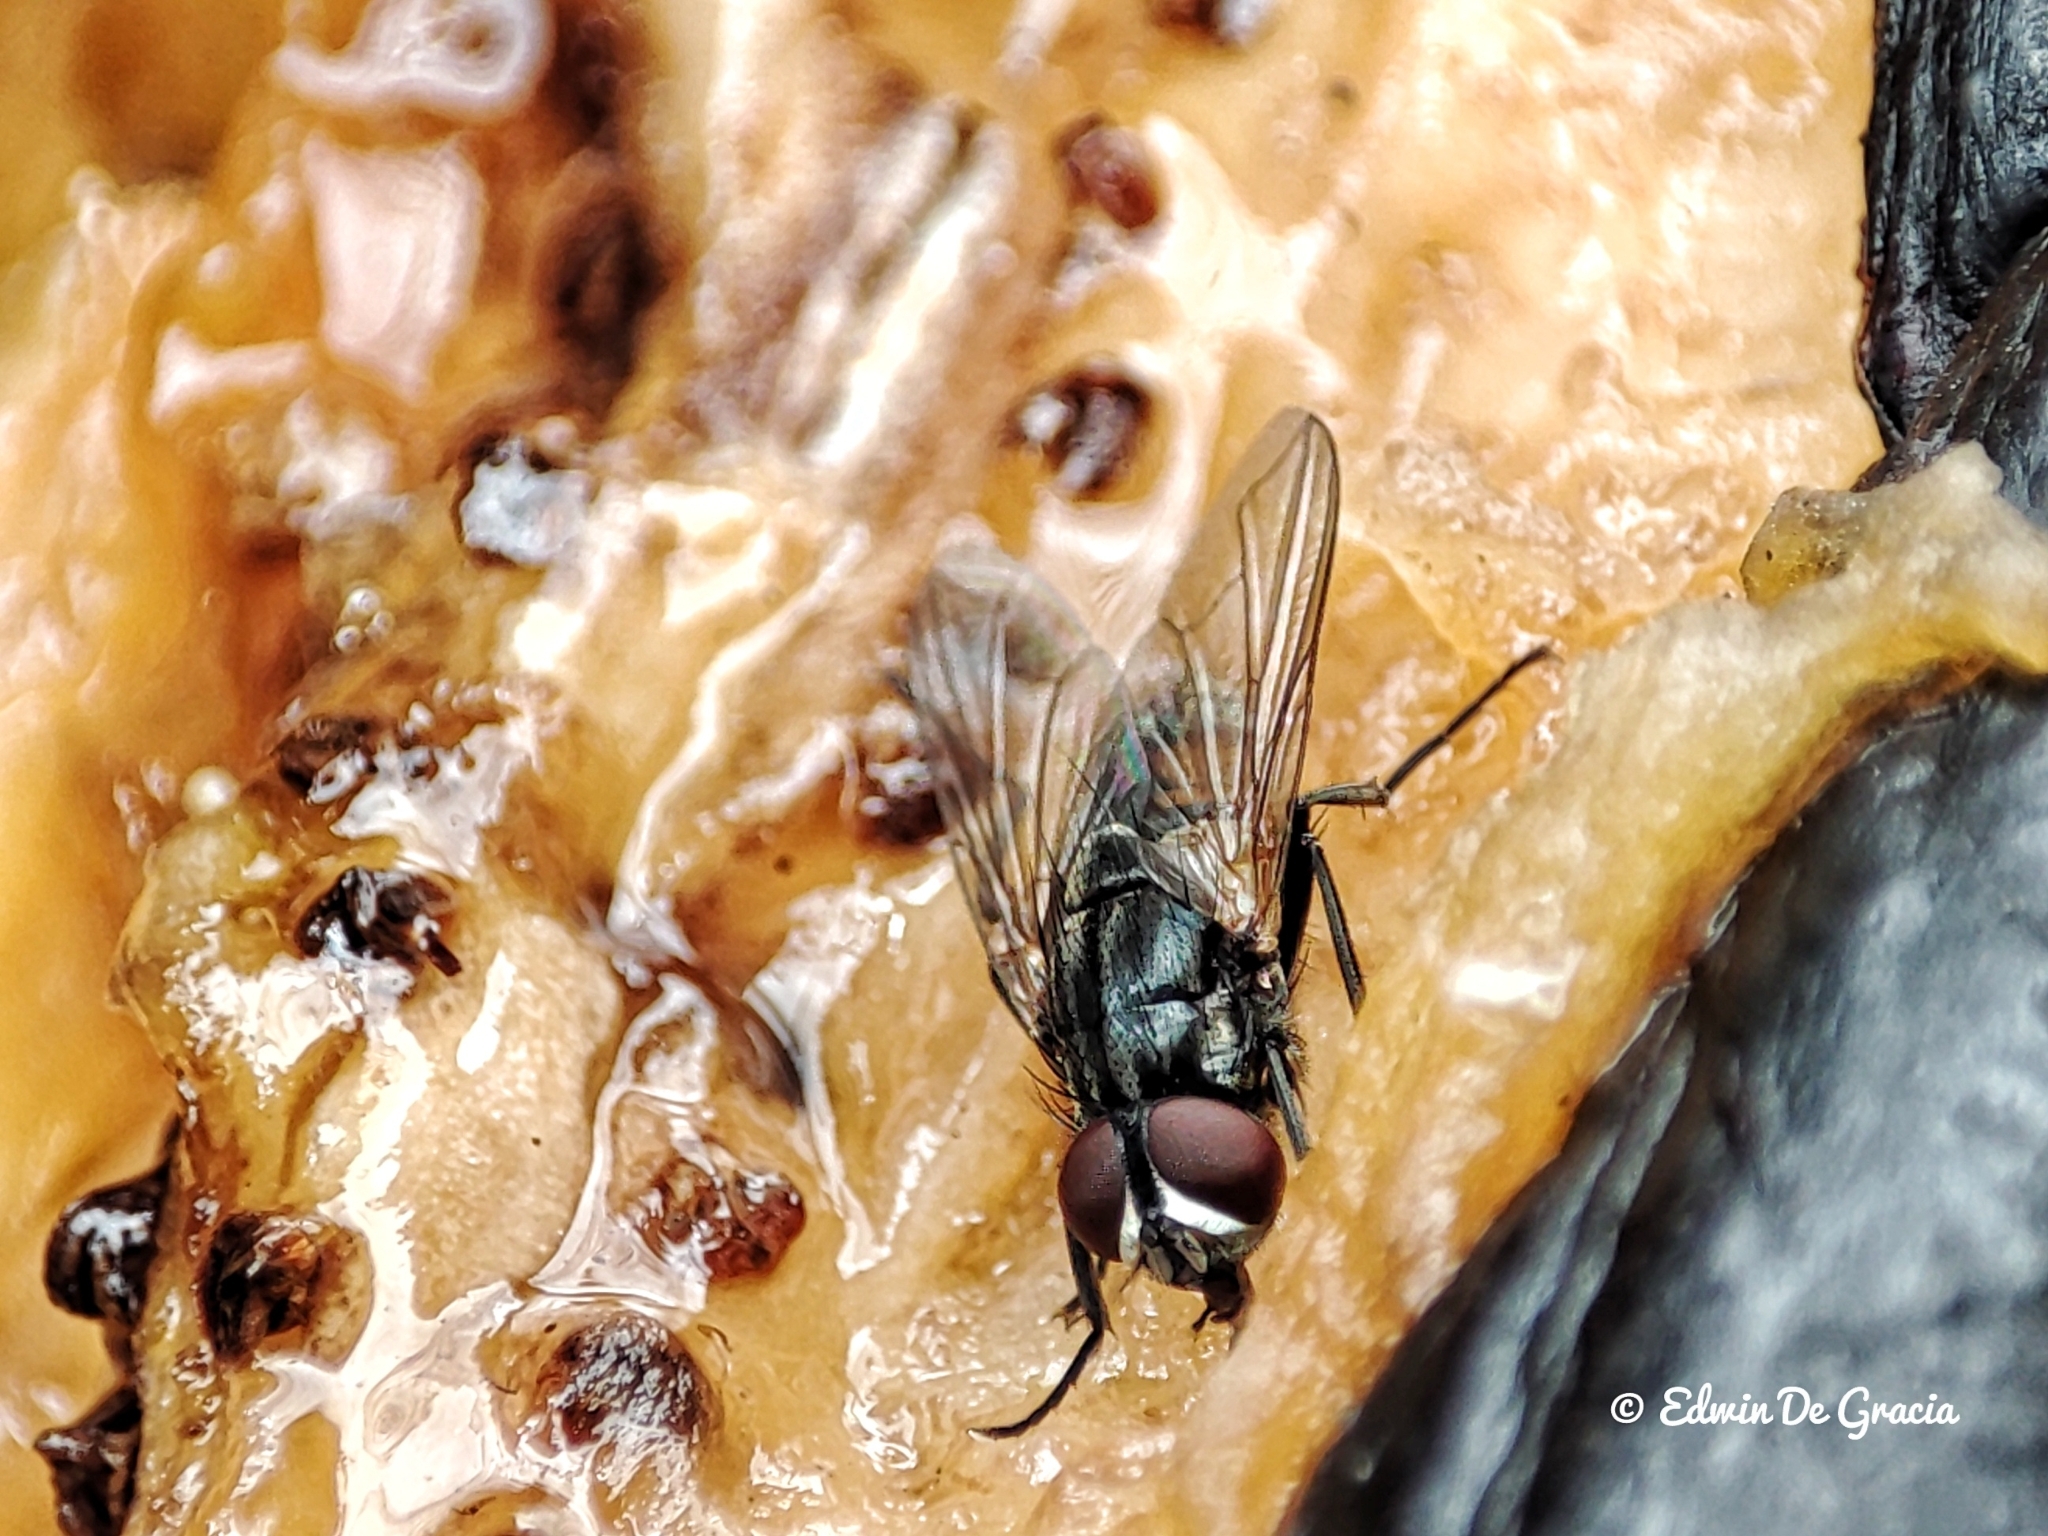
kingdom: Animalia
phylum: Arthropoda
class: Insecta
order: Diptera
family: Muscidae
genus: Musca
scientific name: Musca domestica
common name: House fly
